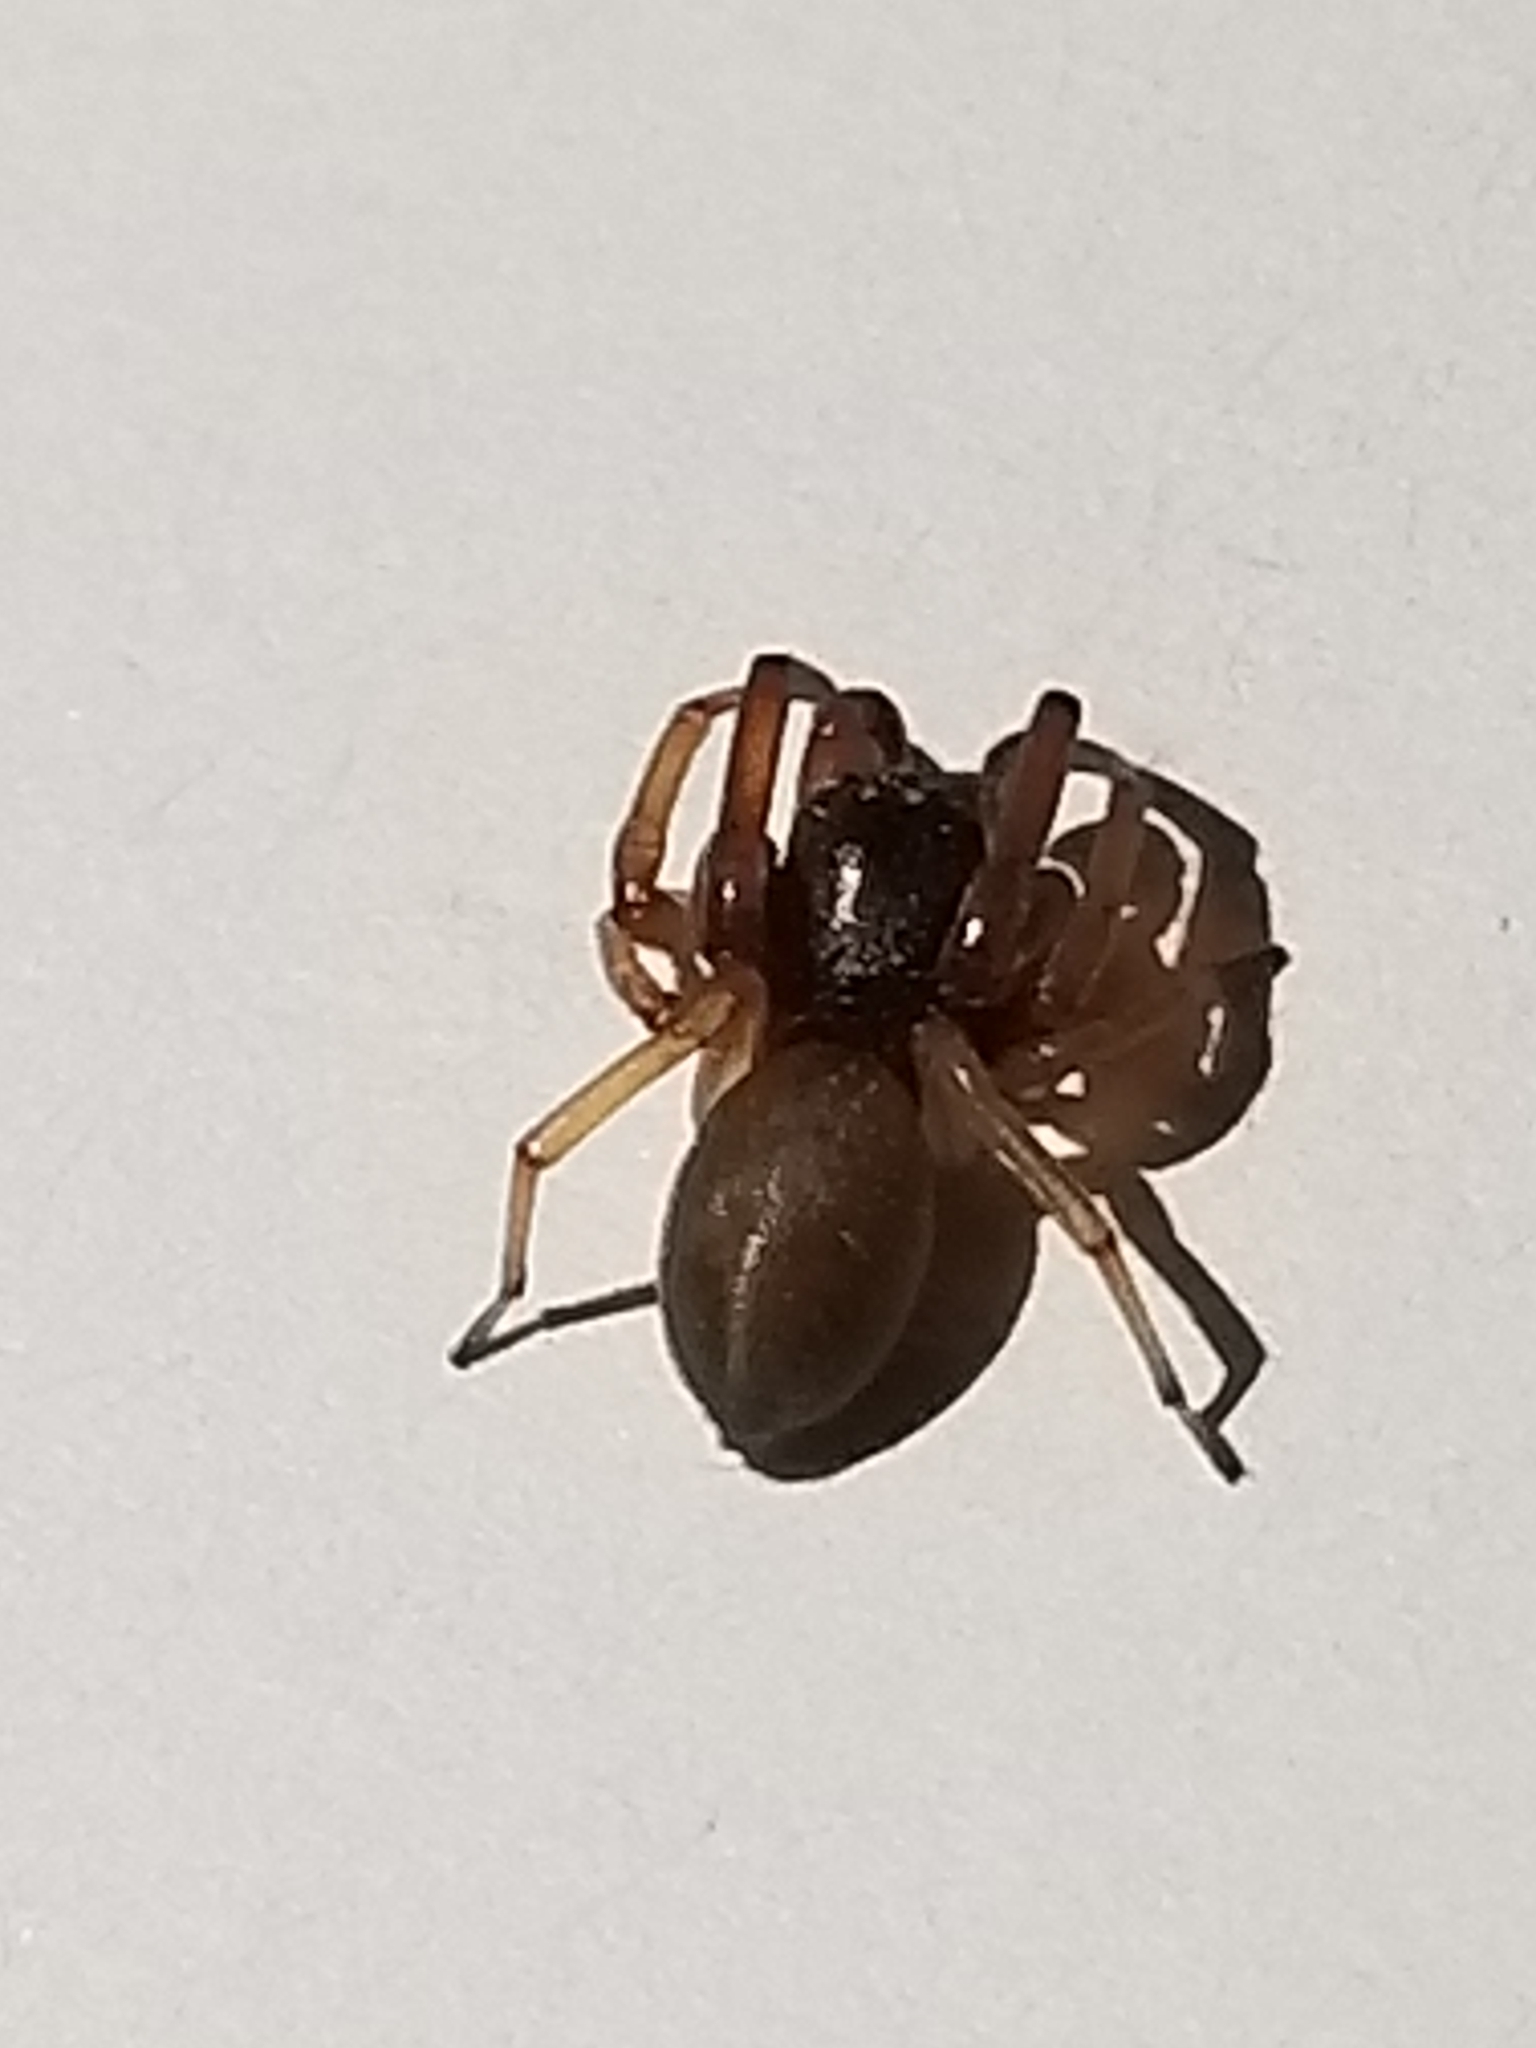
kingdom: Animalia
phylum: Arthropoda
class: Arachnida
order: Araneae
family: Trachelidae
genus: Trachelas
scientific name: Trachelas
